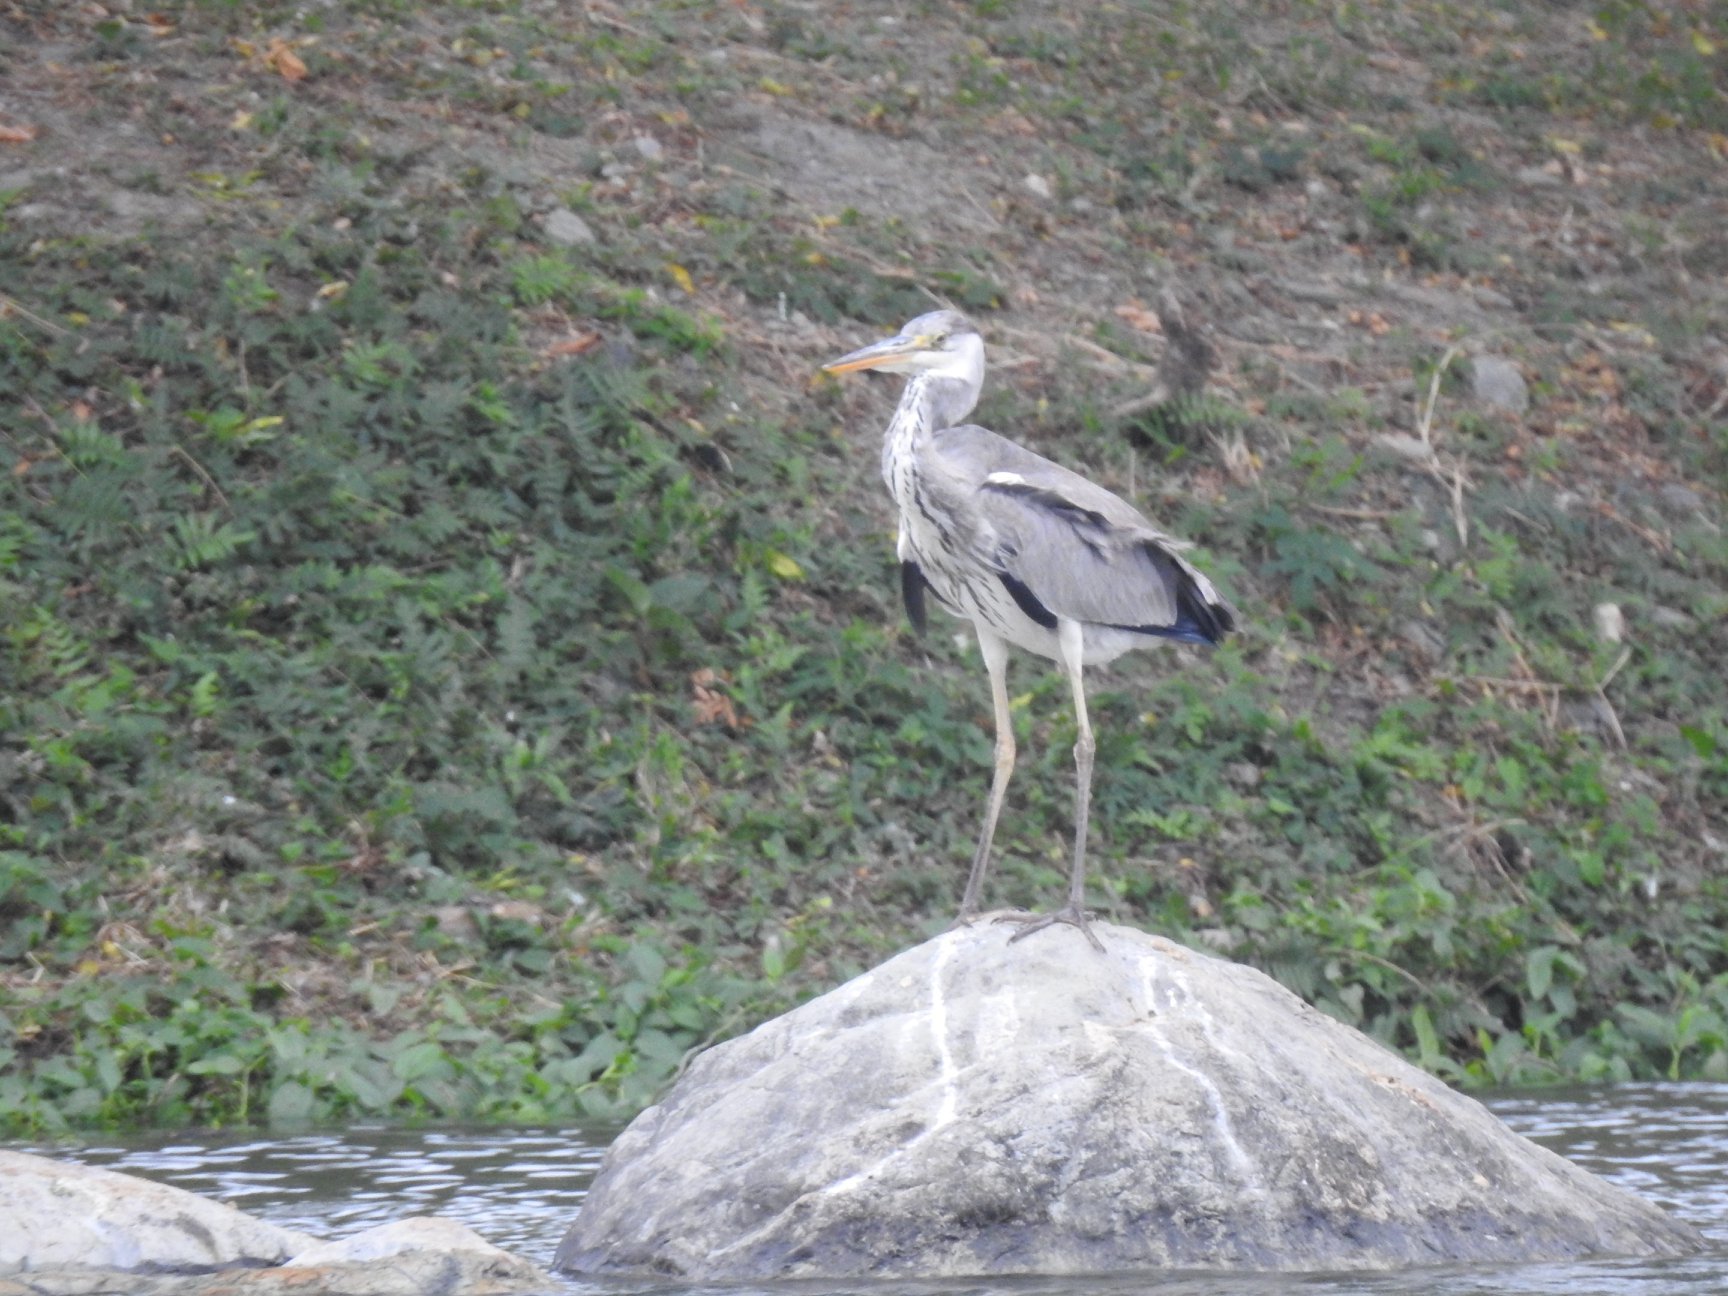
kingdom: Animalia
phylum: Chordata
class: Aves
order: Pelecaniformes
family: Ardeidae
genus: Ardea
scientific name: Ardea cinerea
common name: Grey heron
